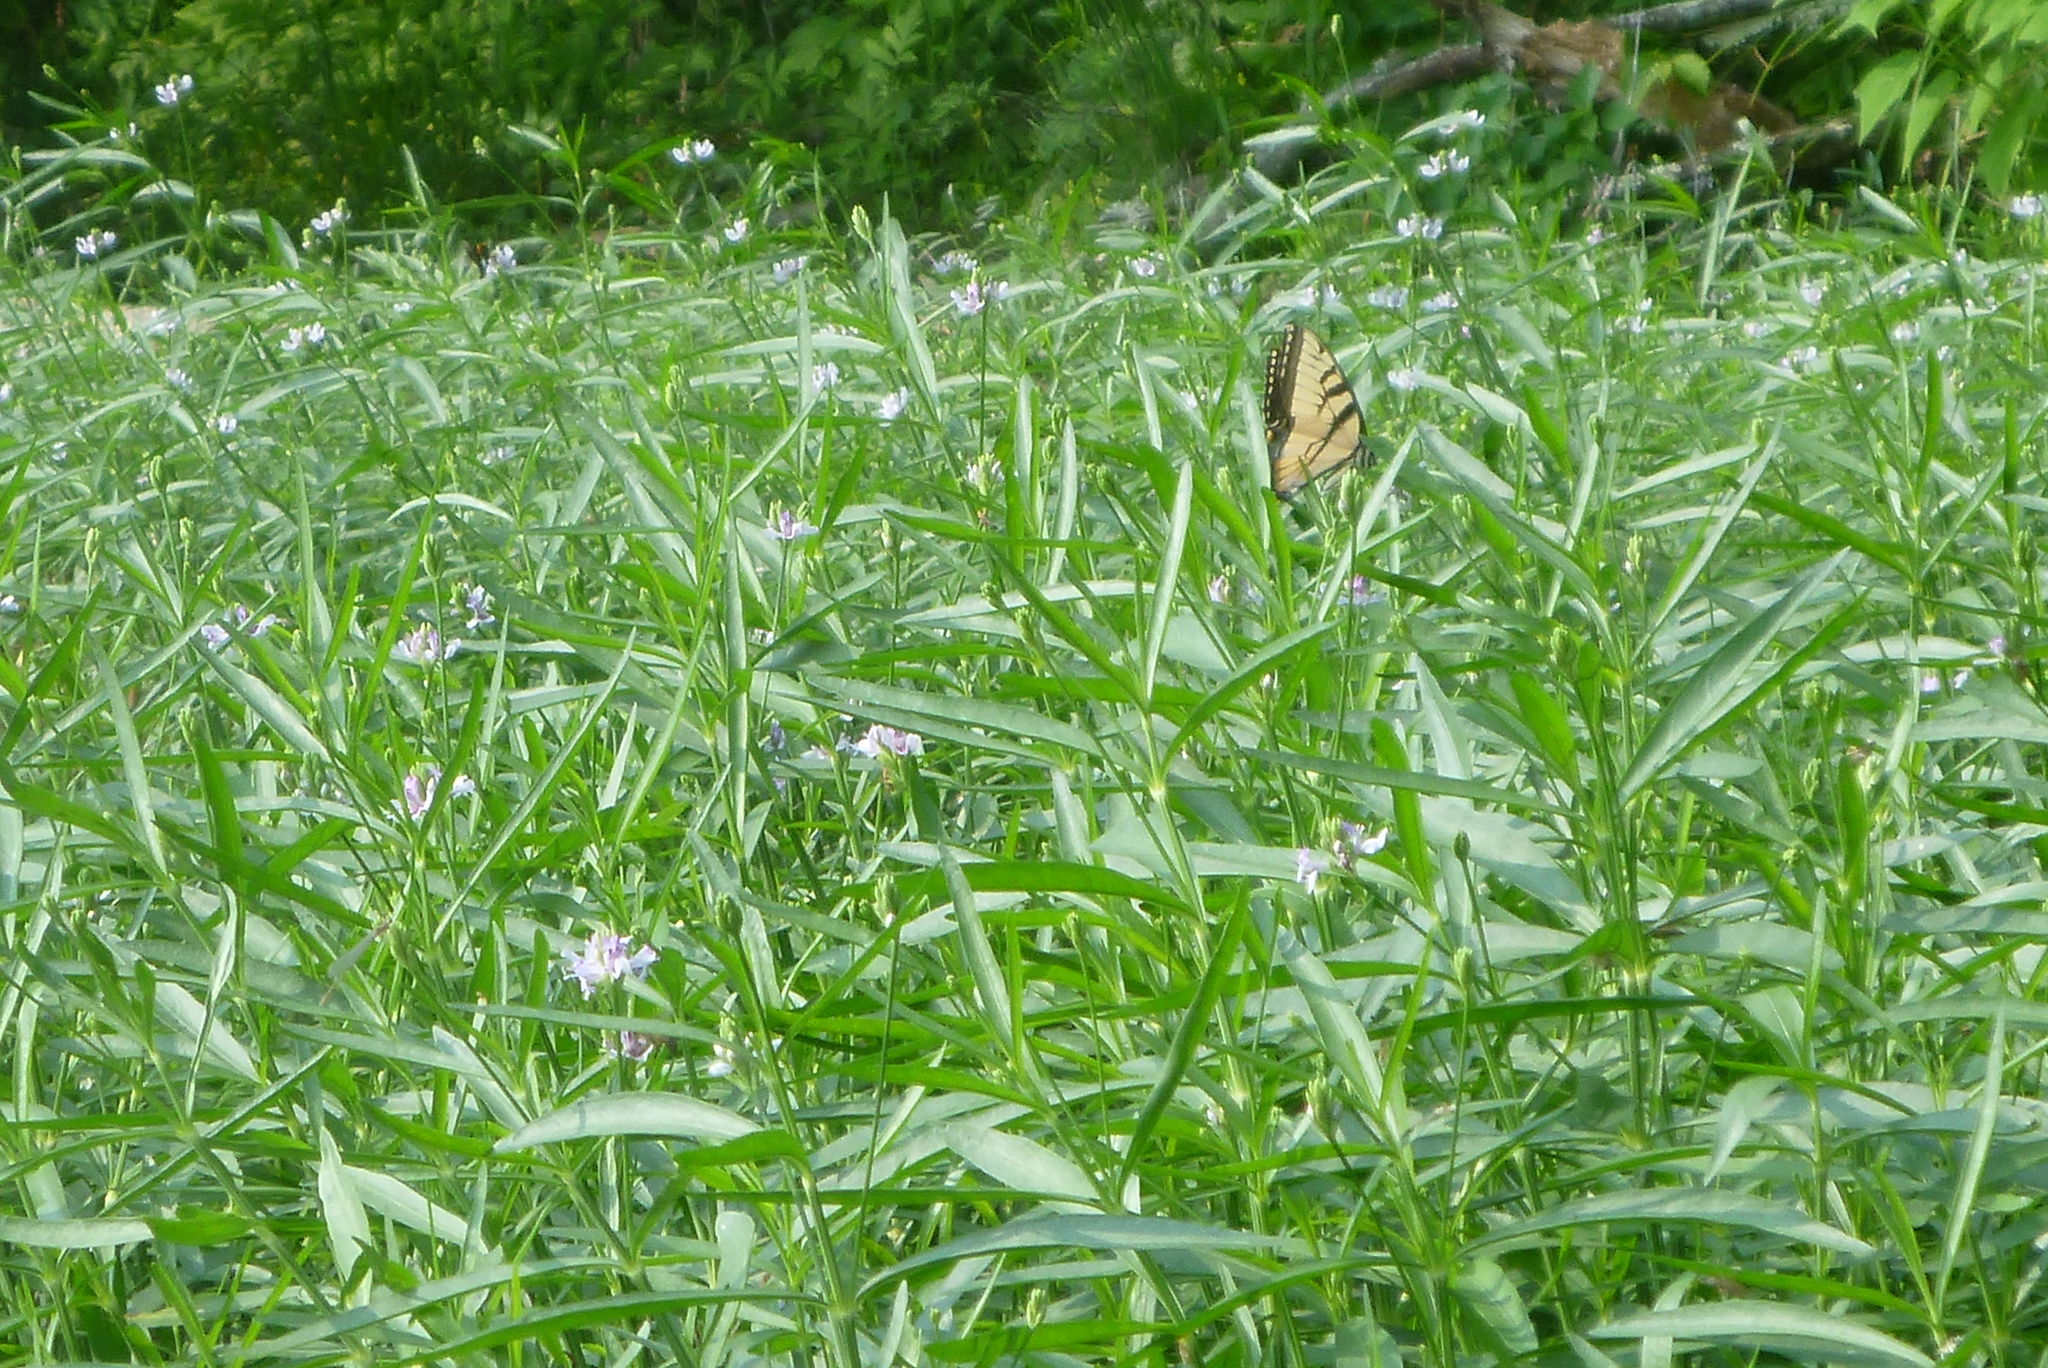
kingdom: Animalia
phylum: Arthropoda
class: Insecta
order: Lepidoptera
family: Papilionidae
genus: Papilio
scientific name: Papilio glaucus
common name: Tiger swallowtail
